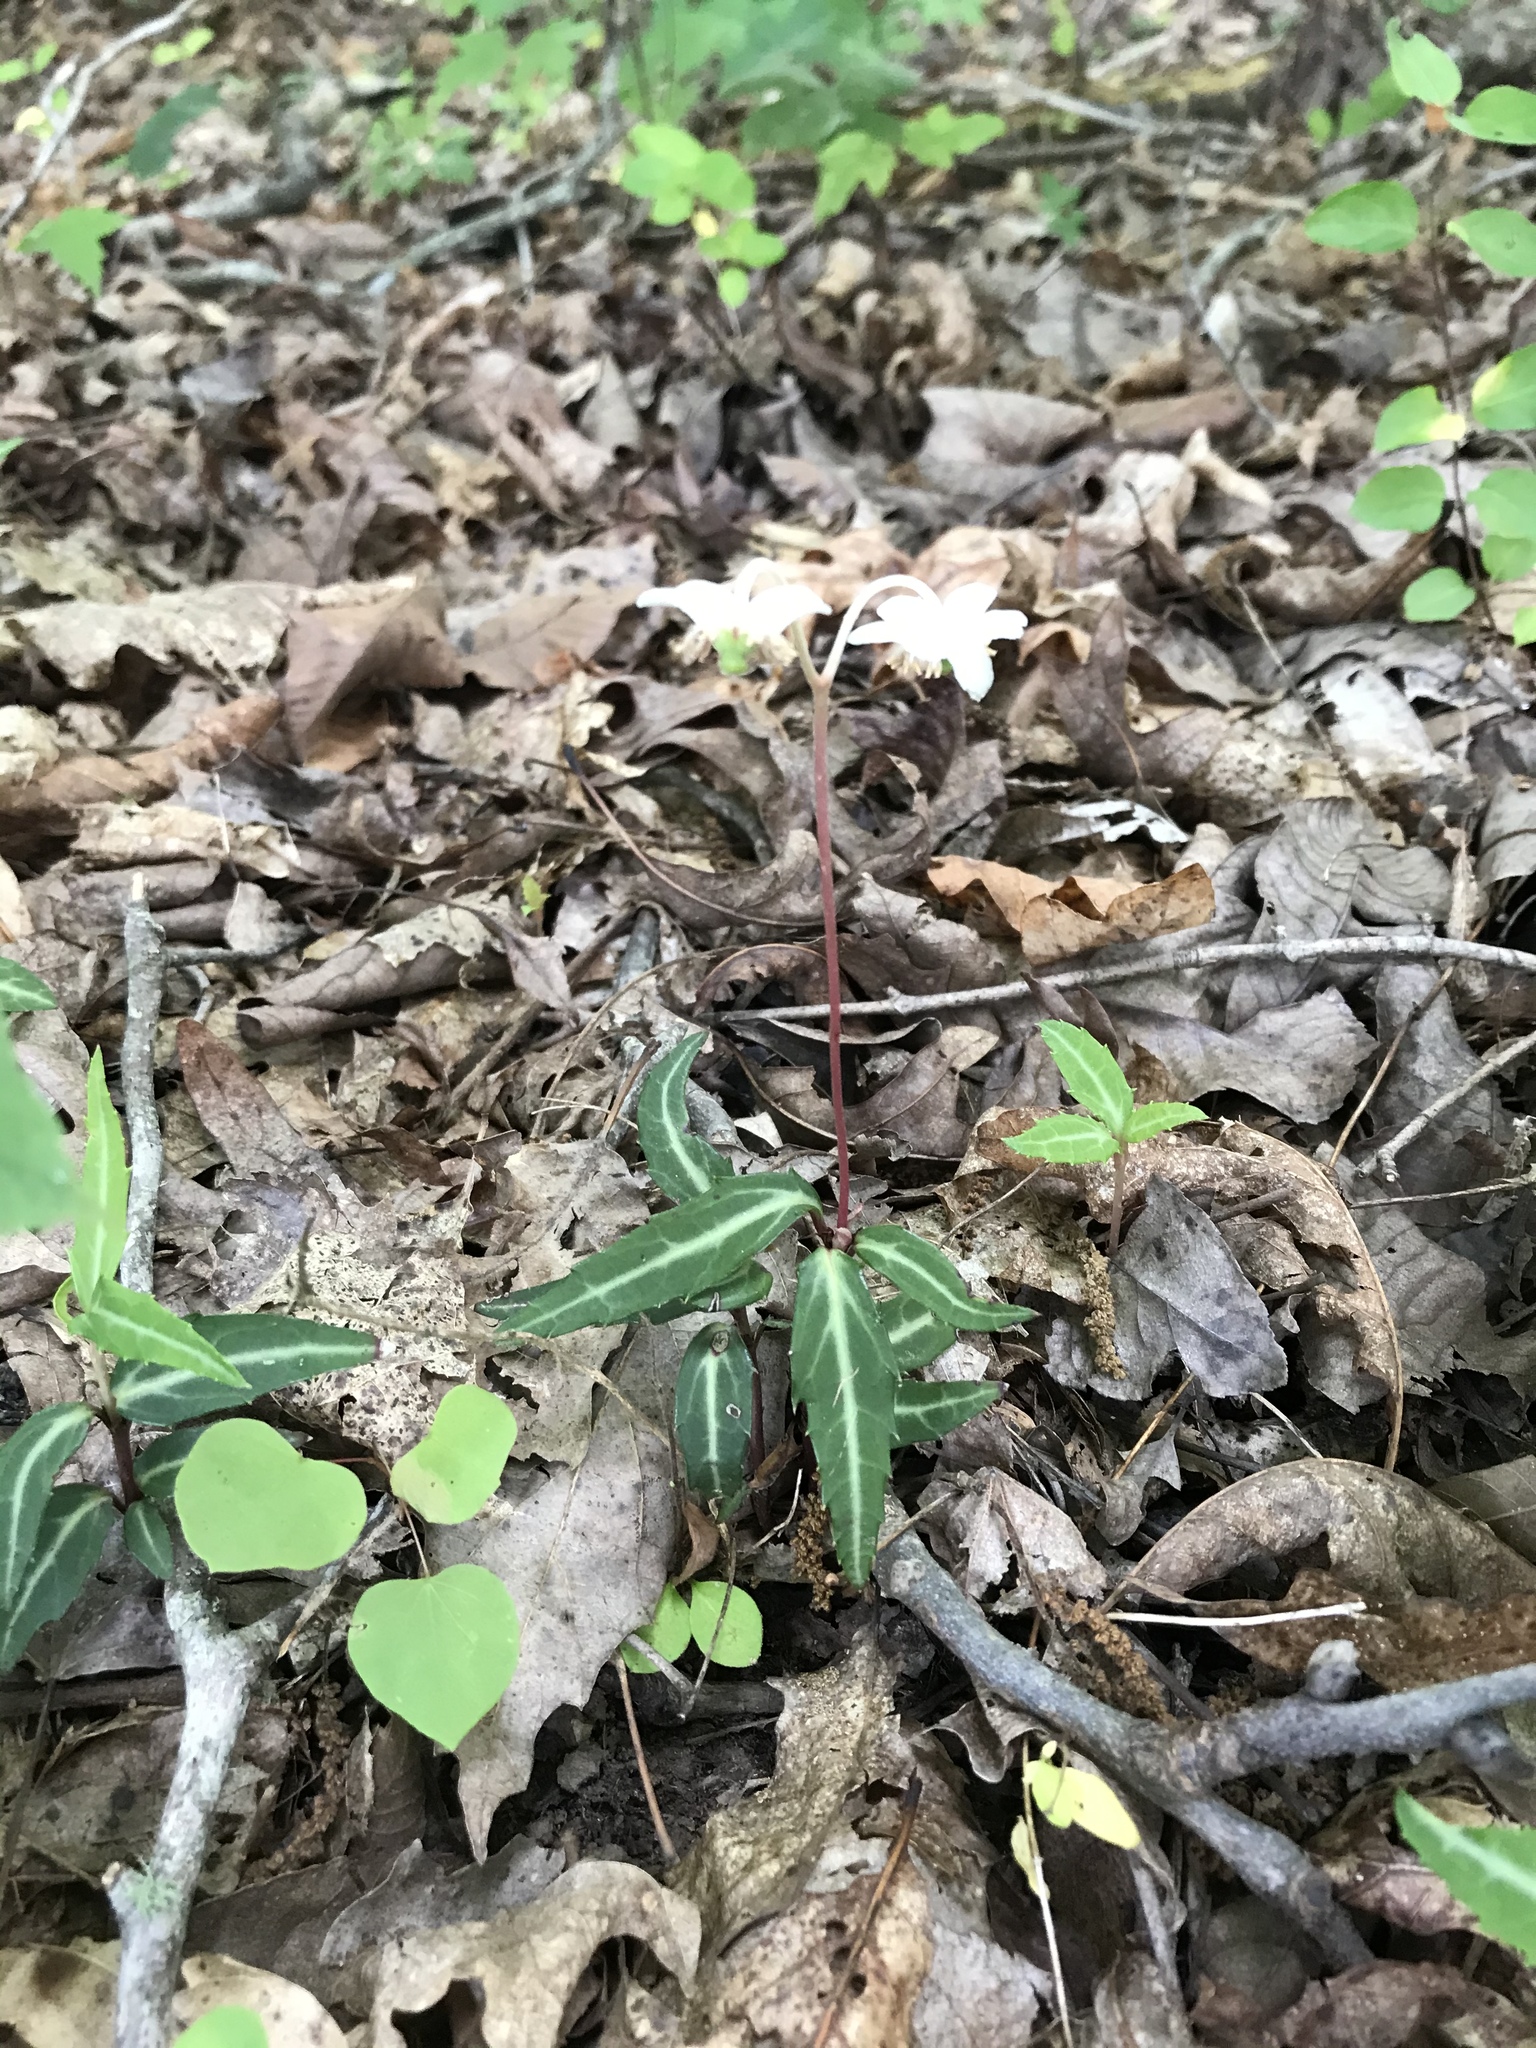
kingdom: Plantae
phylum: Tracheophyta
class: Magnoliopsida
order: Ericales
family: Ericaceae
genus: Chimaphila
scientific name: Chimaphila maculata
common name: Spotted pipsissewa
